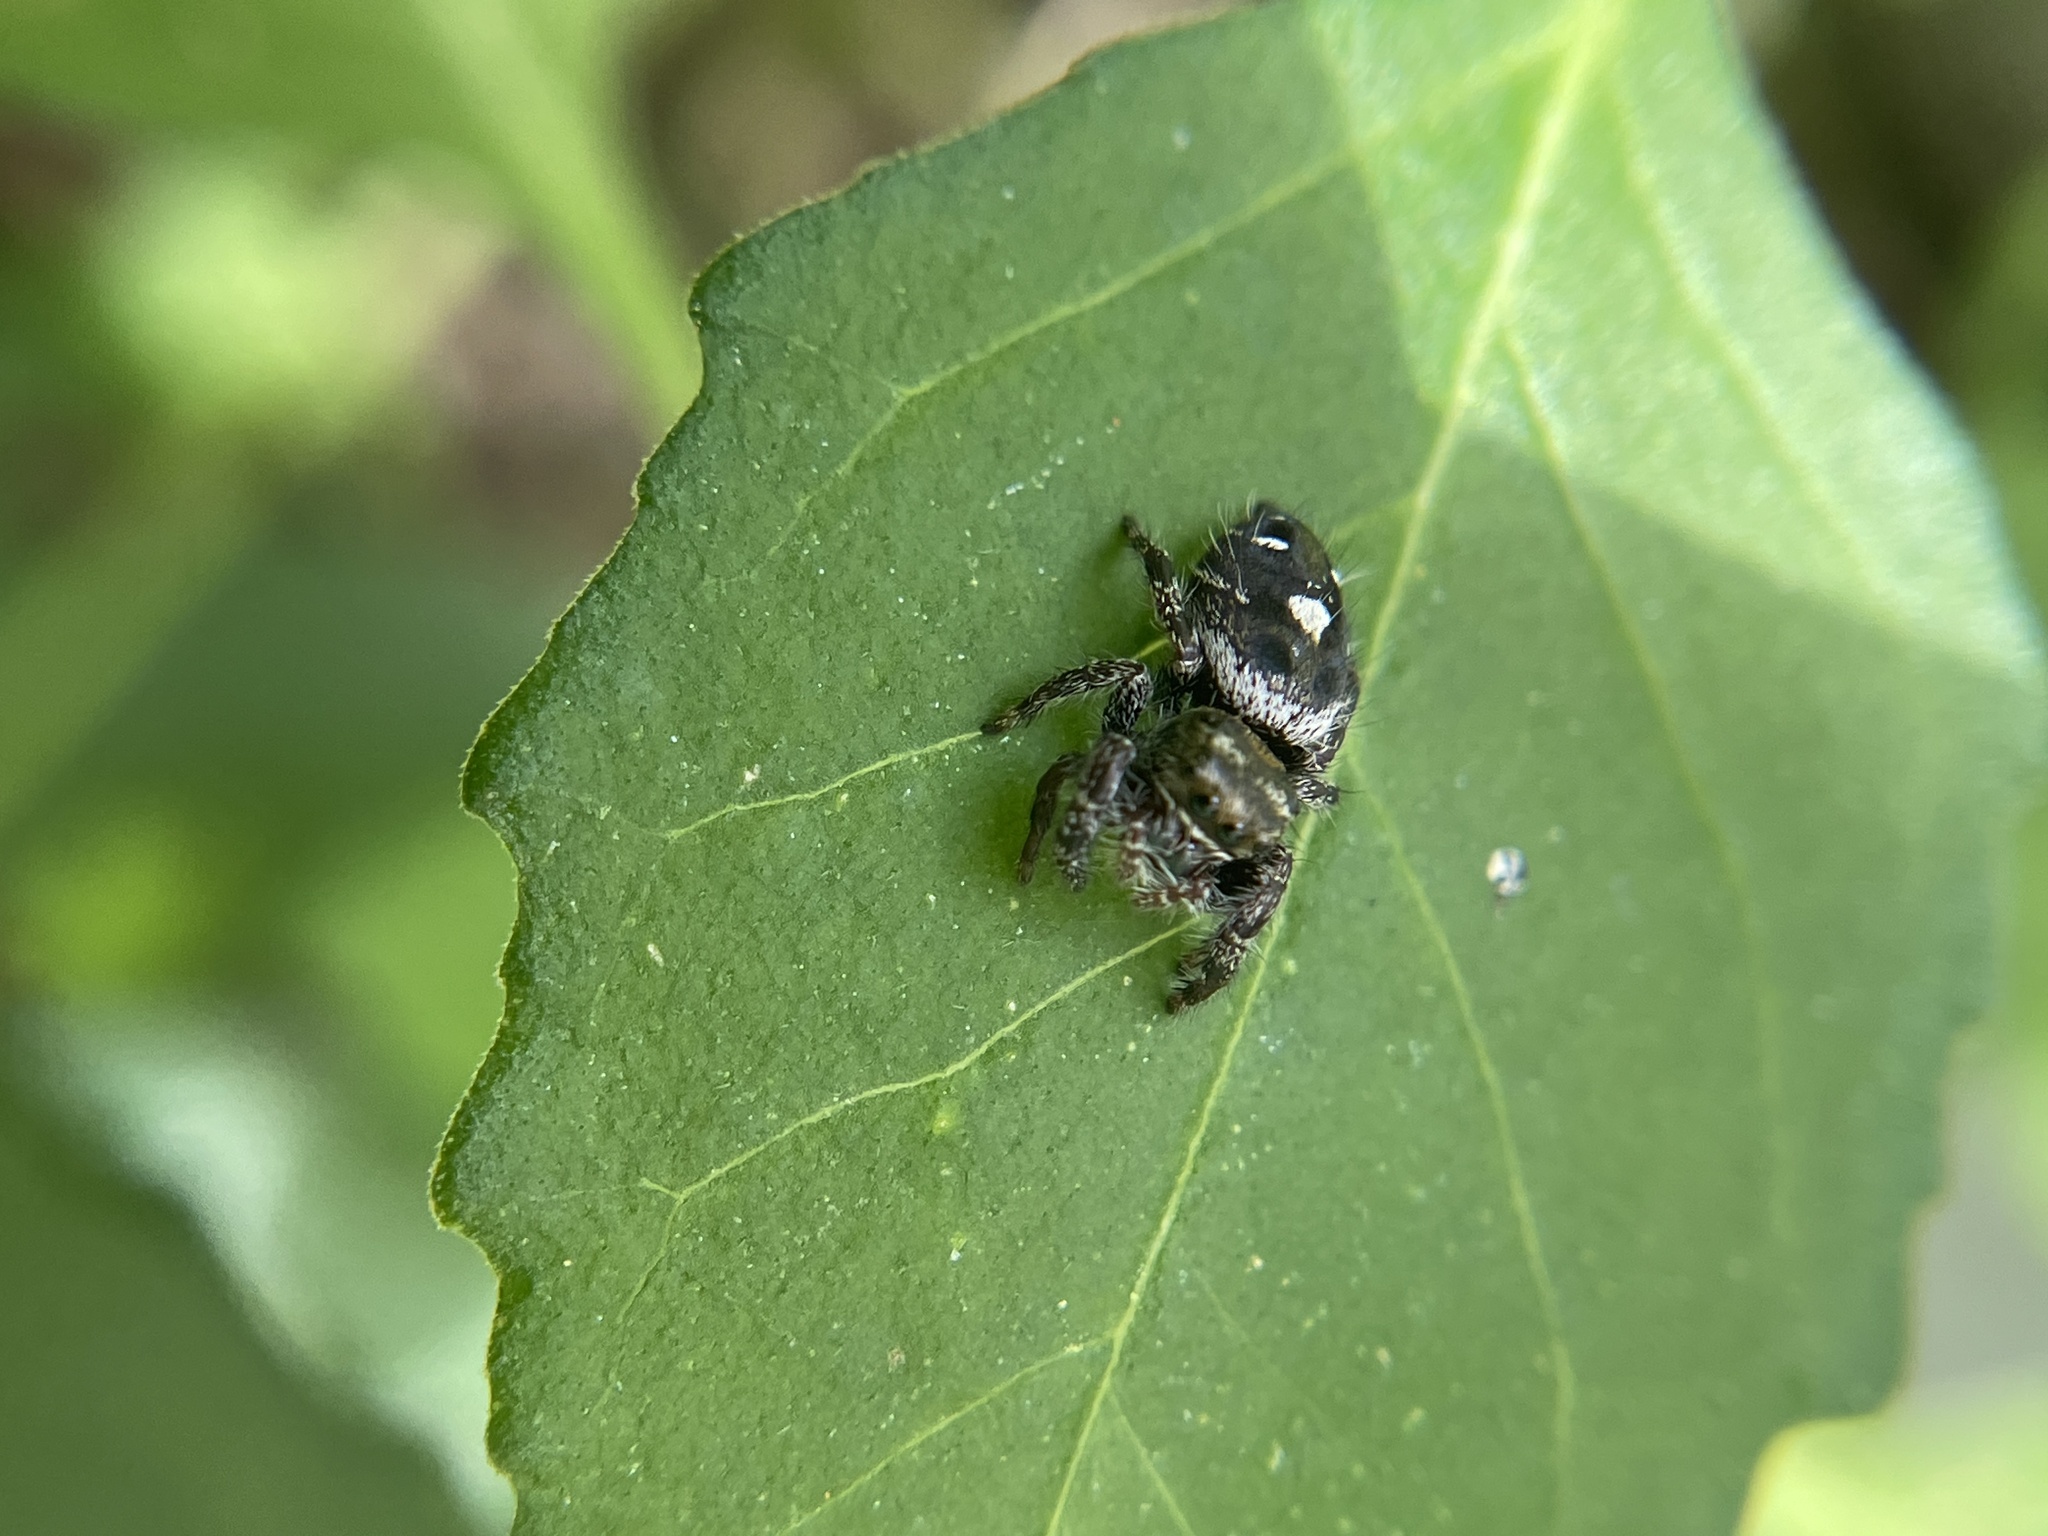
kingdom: Animalia
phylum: Arthropoda
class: Arachnida
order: Araneae
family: Salticidae
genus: Phidippus
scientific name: Phidippus audax
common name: Bold jumper
